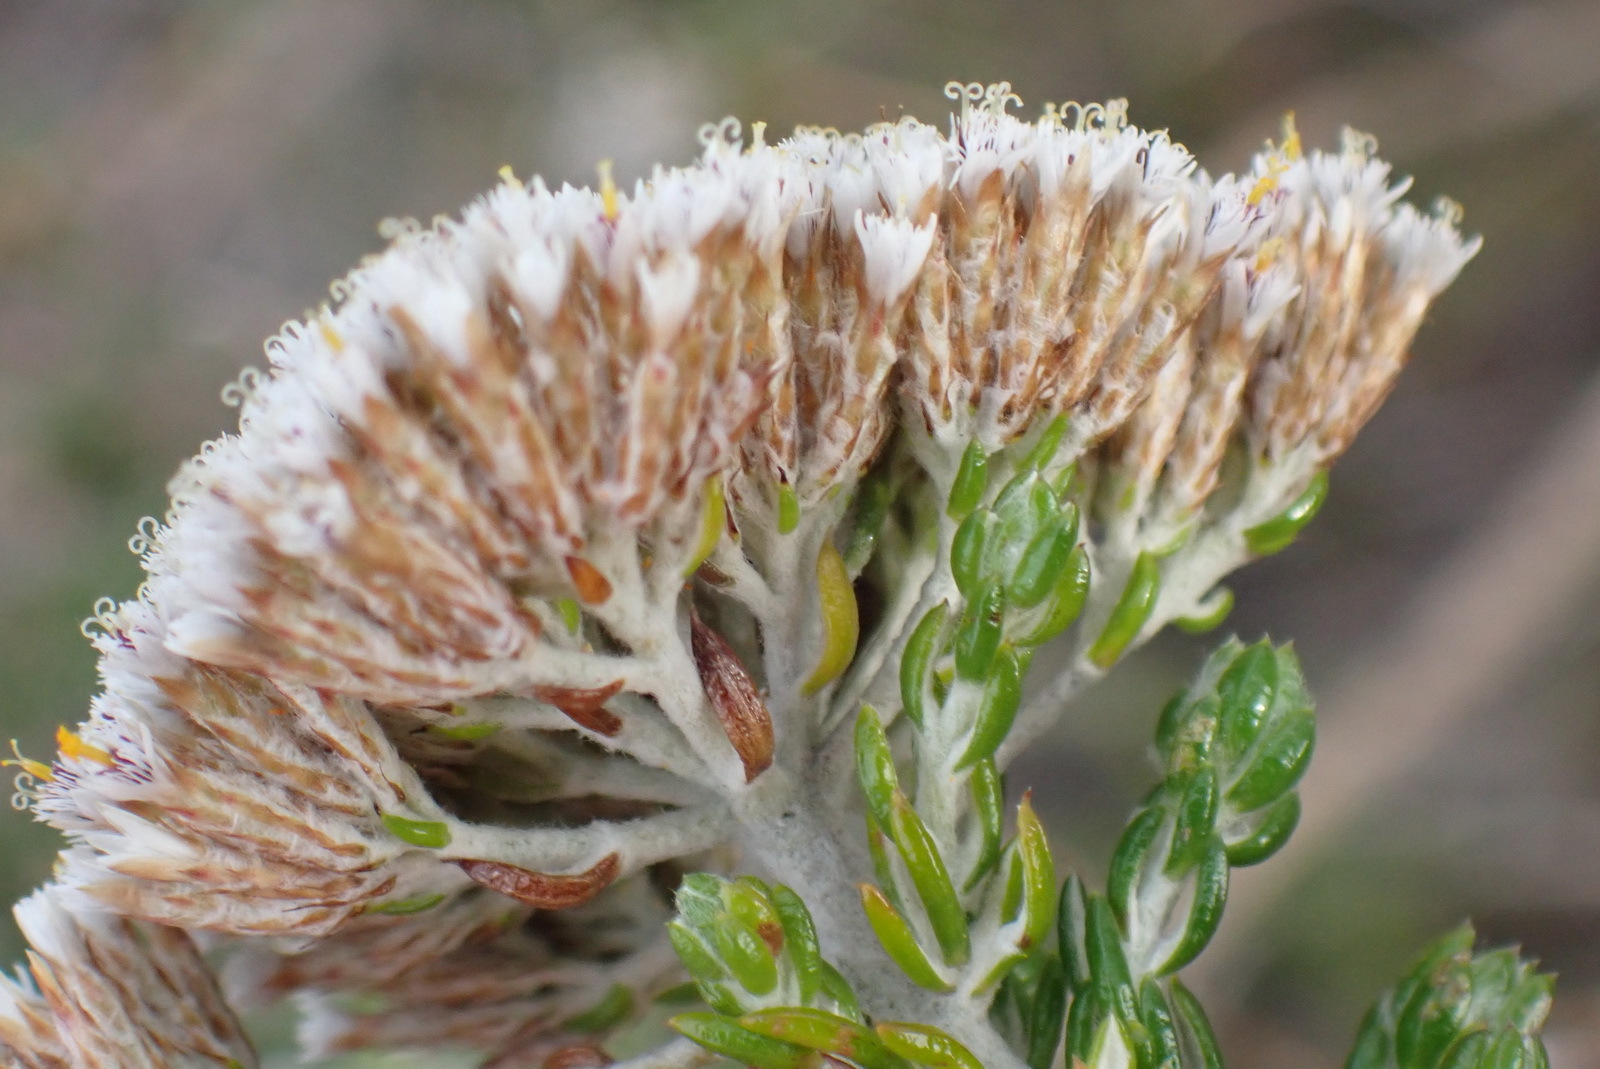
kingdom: Plantae
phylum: Tracheophyta
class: Magnoliopsida
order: Asterales
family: Asteraceae
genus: Metalasia
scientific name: Metalasia pungens
